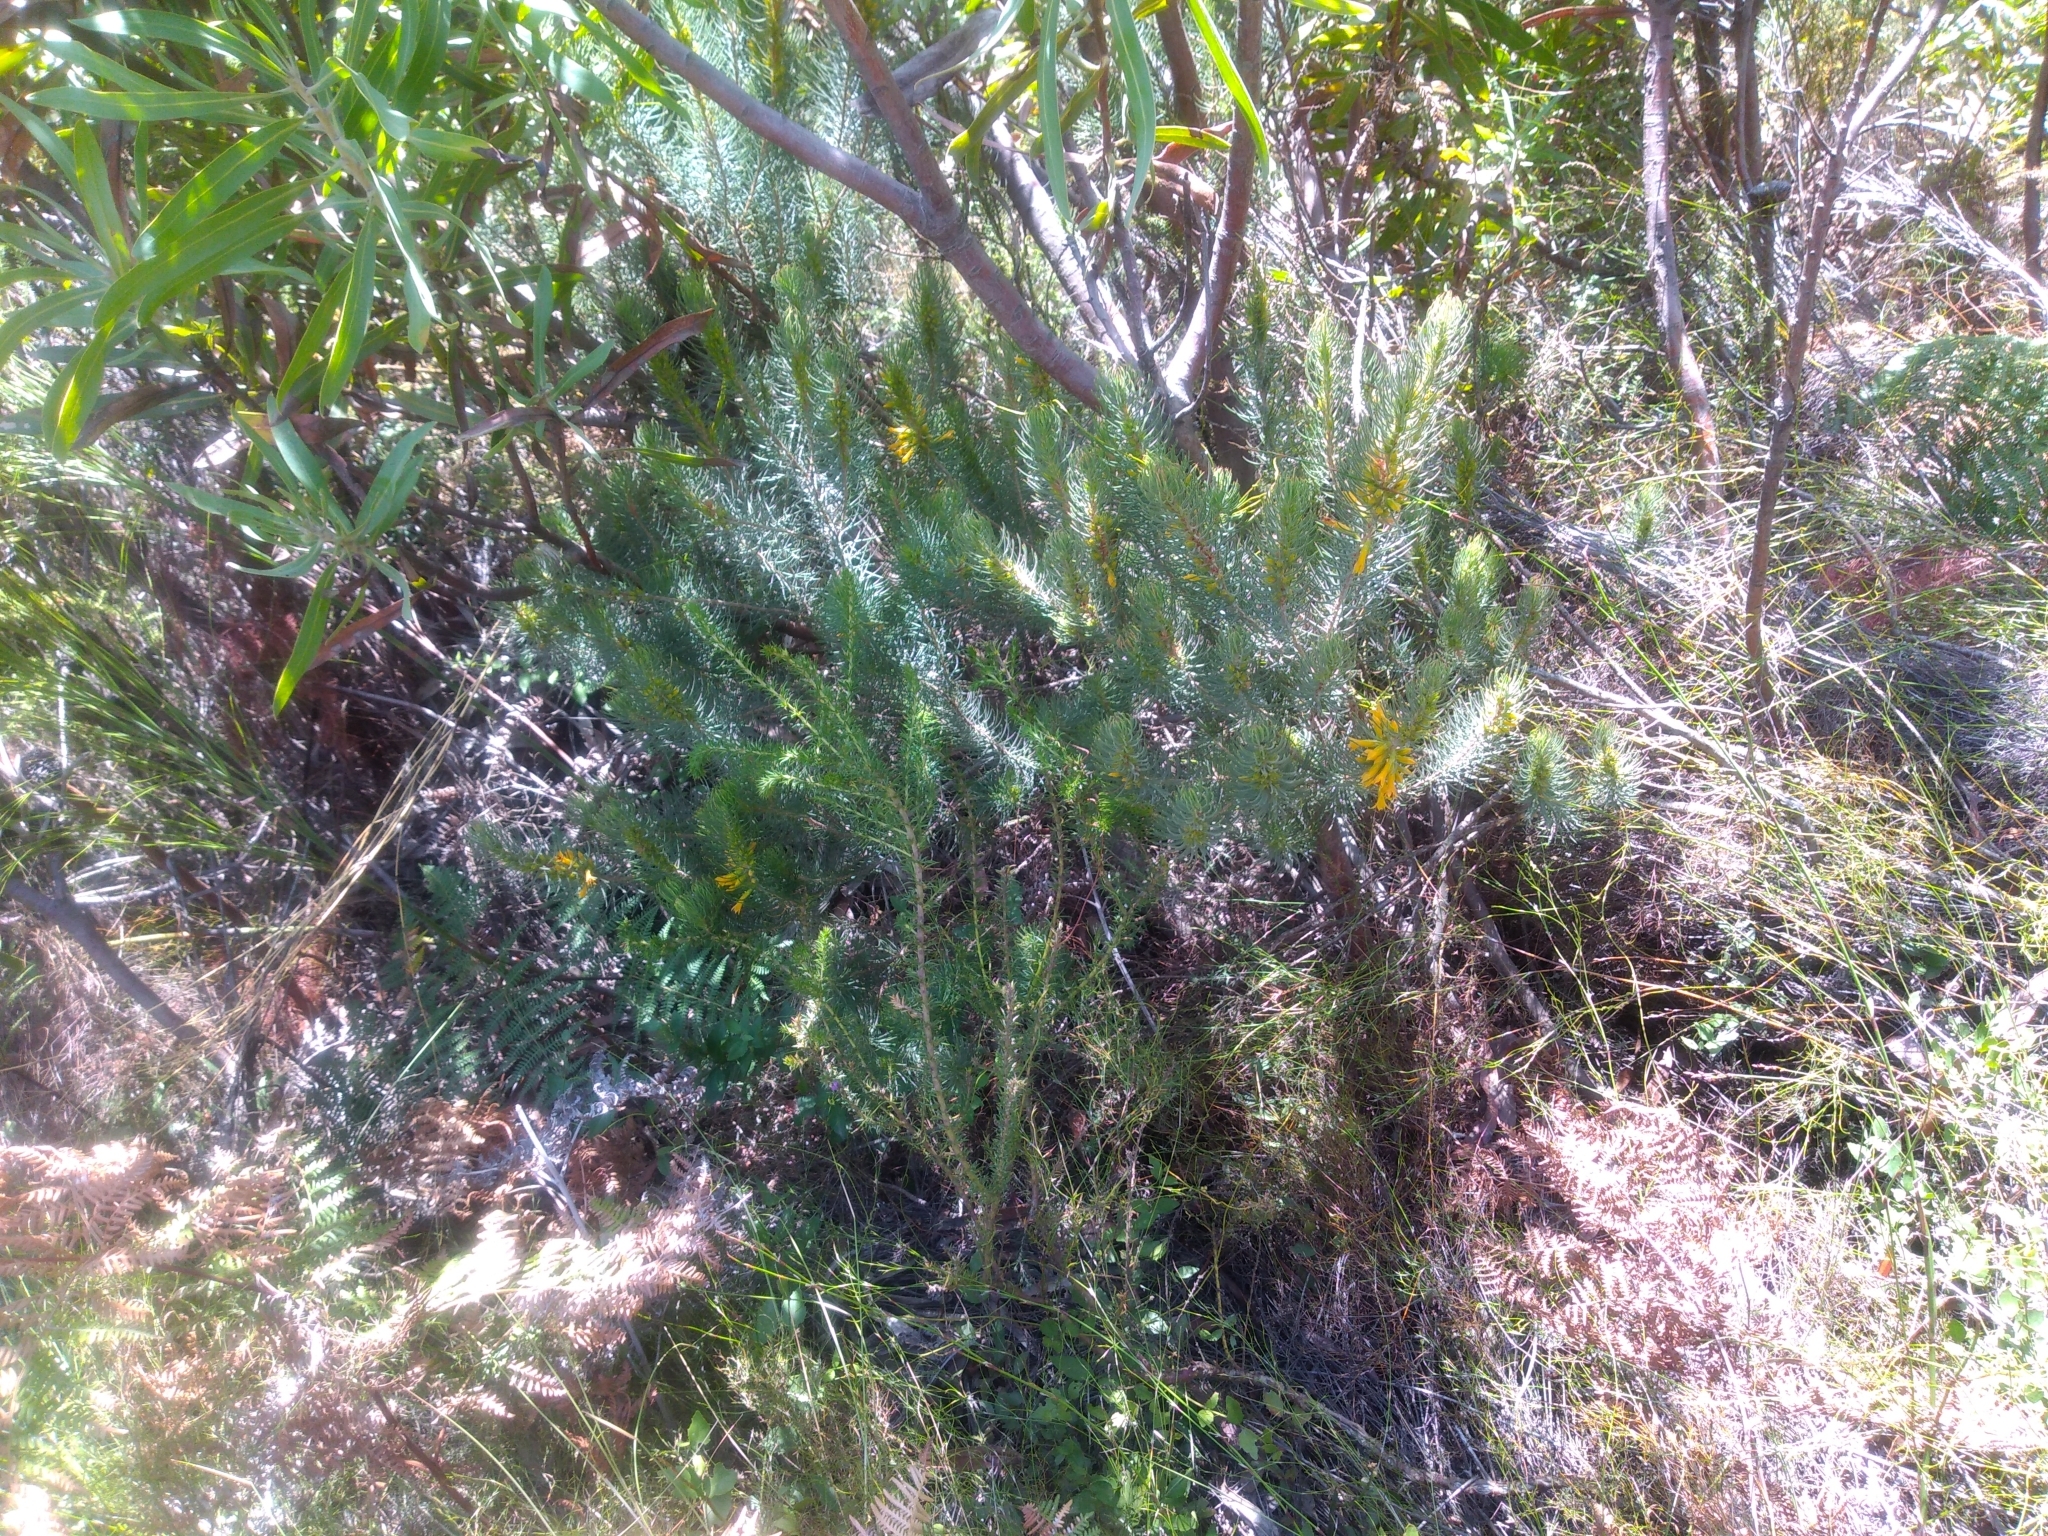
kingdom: Plantae
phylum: Tracheophyta
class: Magnoliopsida
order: Ericales
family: Ericaceae
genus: Erica
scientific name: Erica grandiflora
